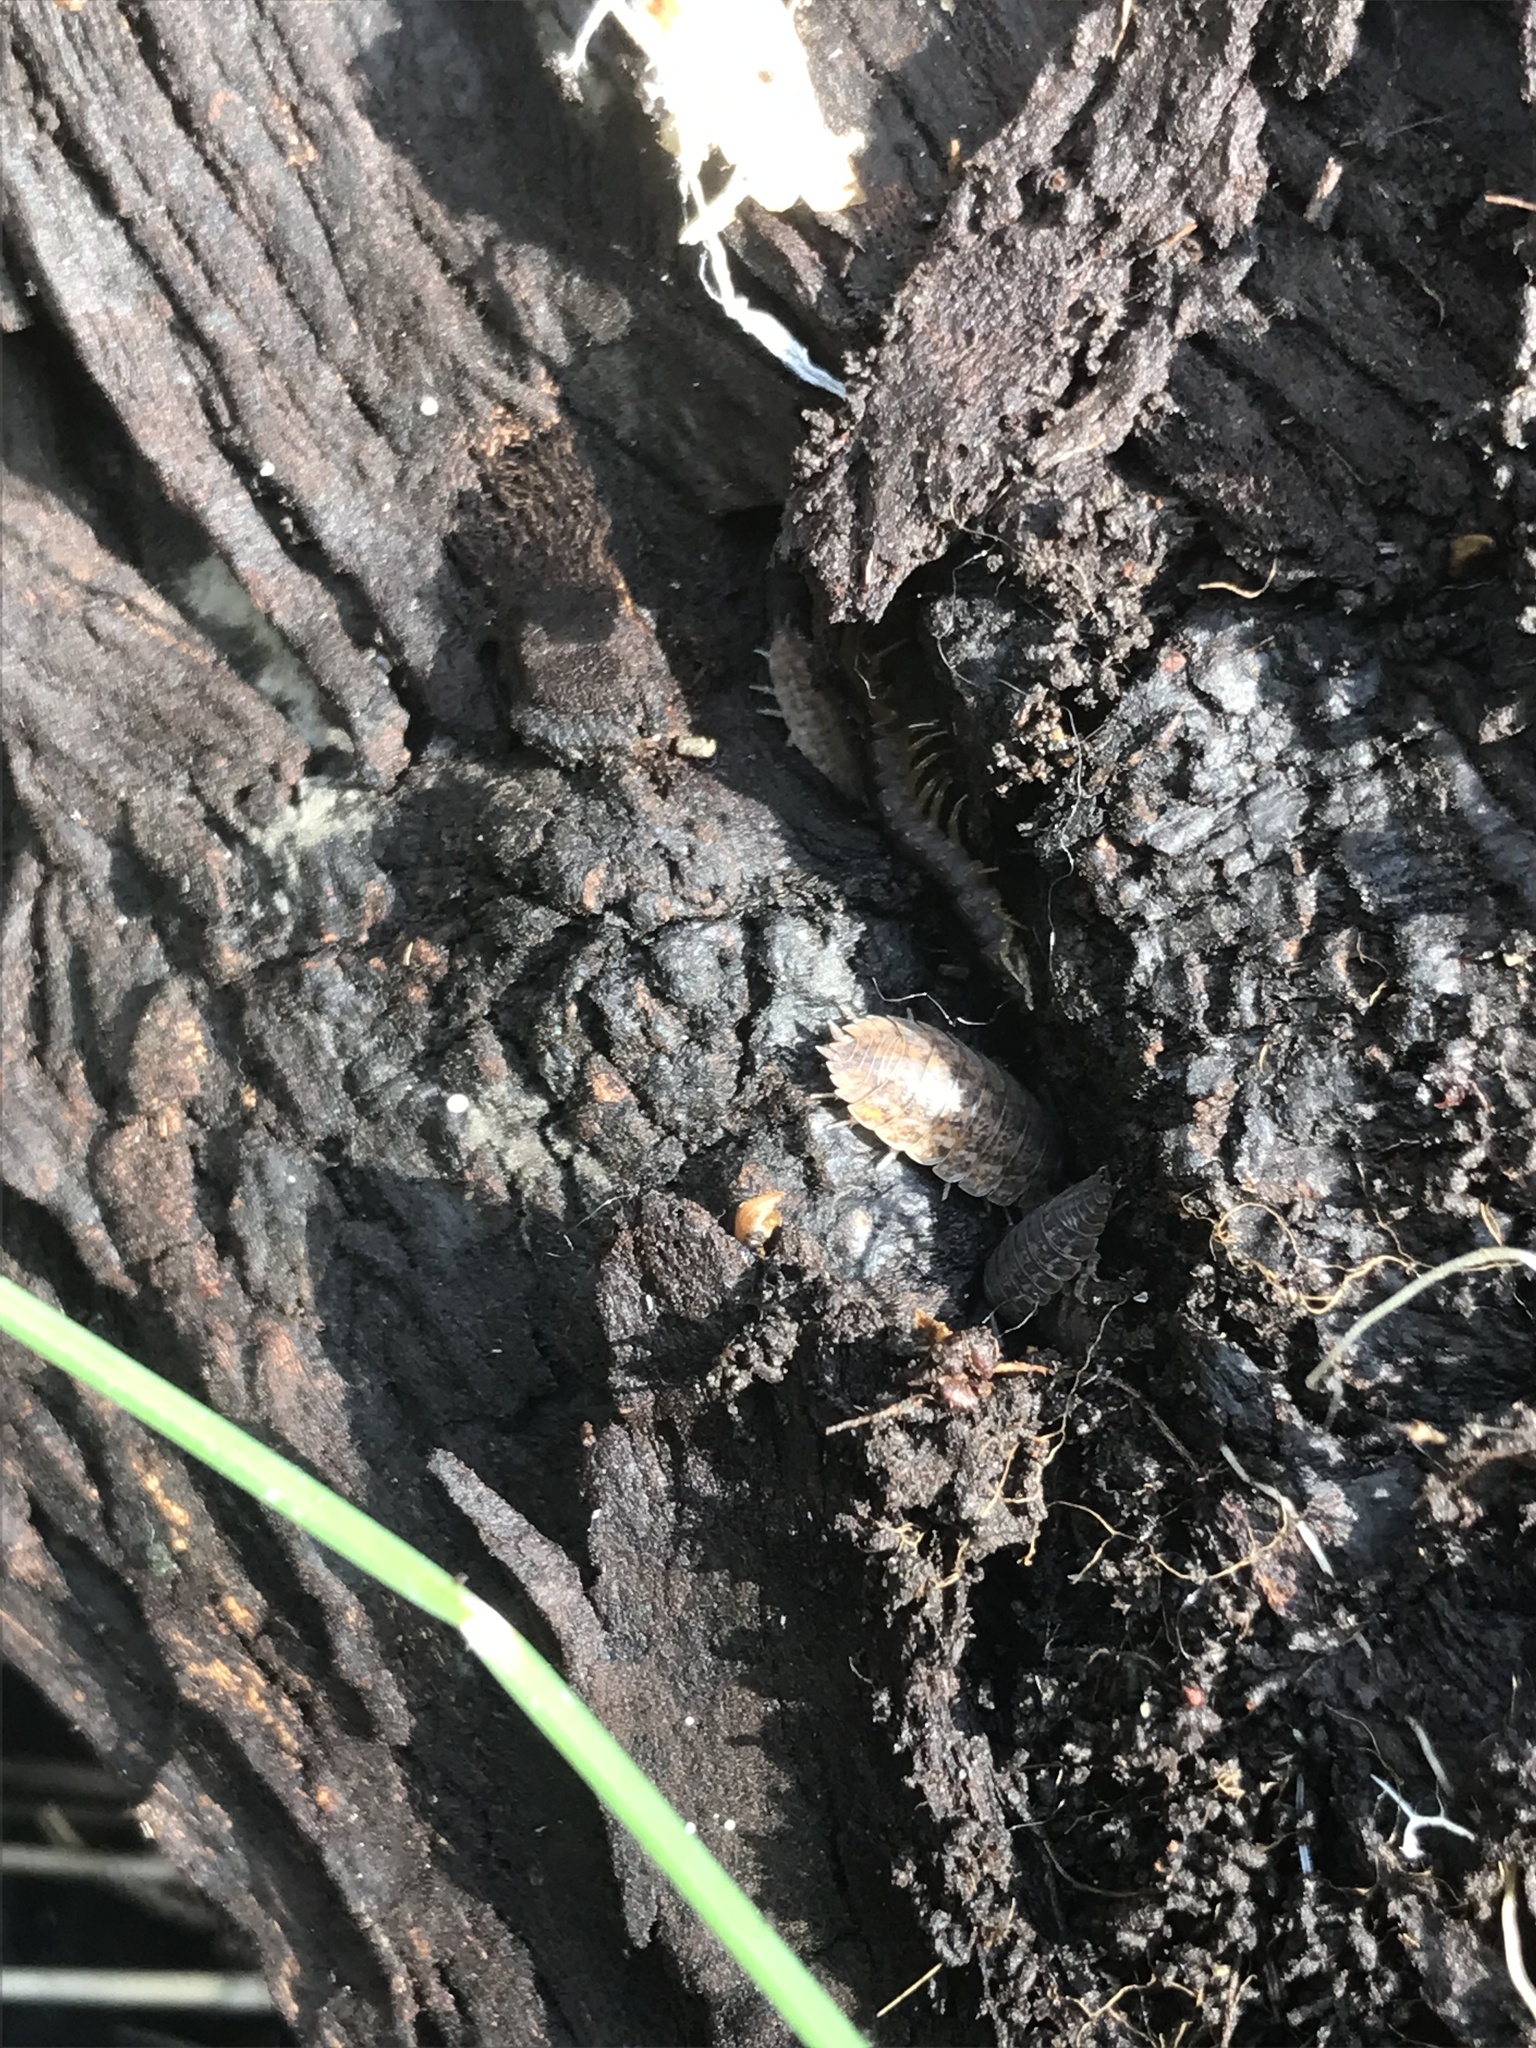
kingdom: Animalia
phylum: Arthropoda
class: Malacostraca
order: Isopoda
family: Trachelipodidae
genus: Trachelipus
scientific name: Trachelipus rathkii
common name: Isopod
